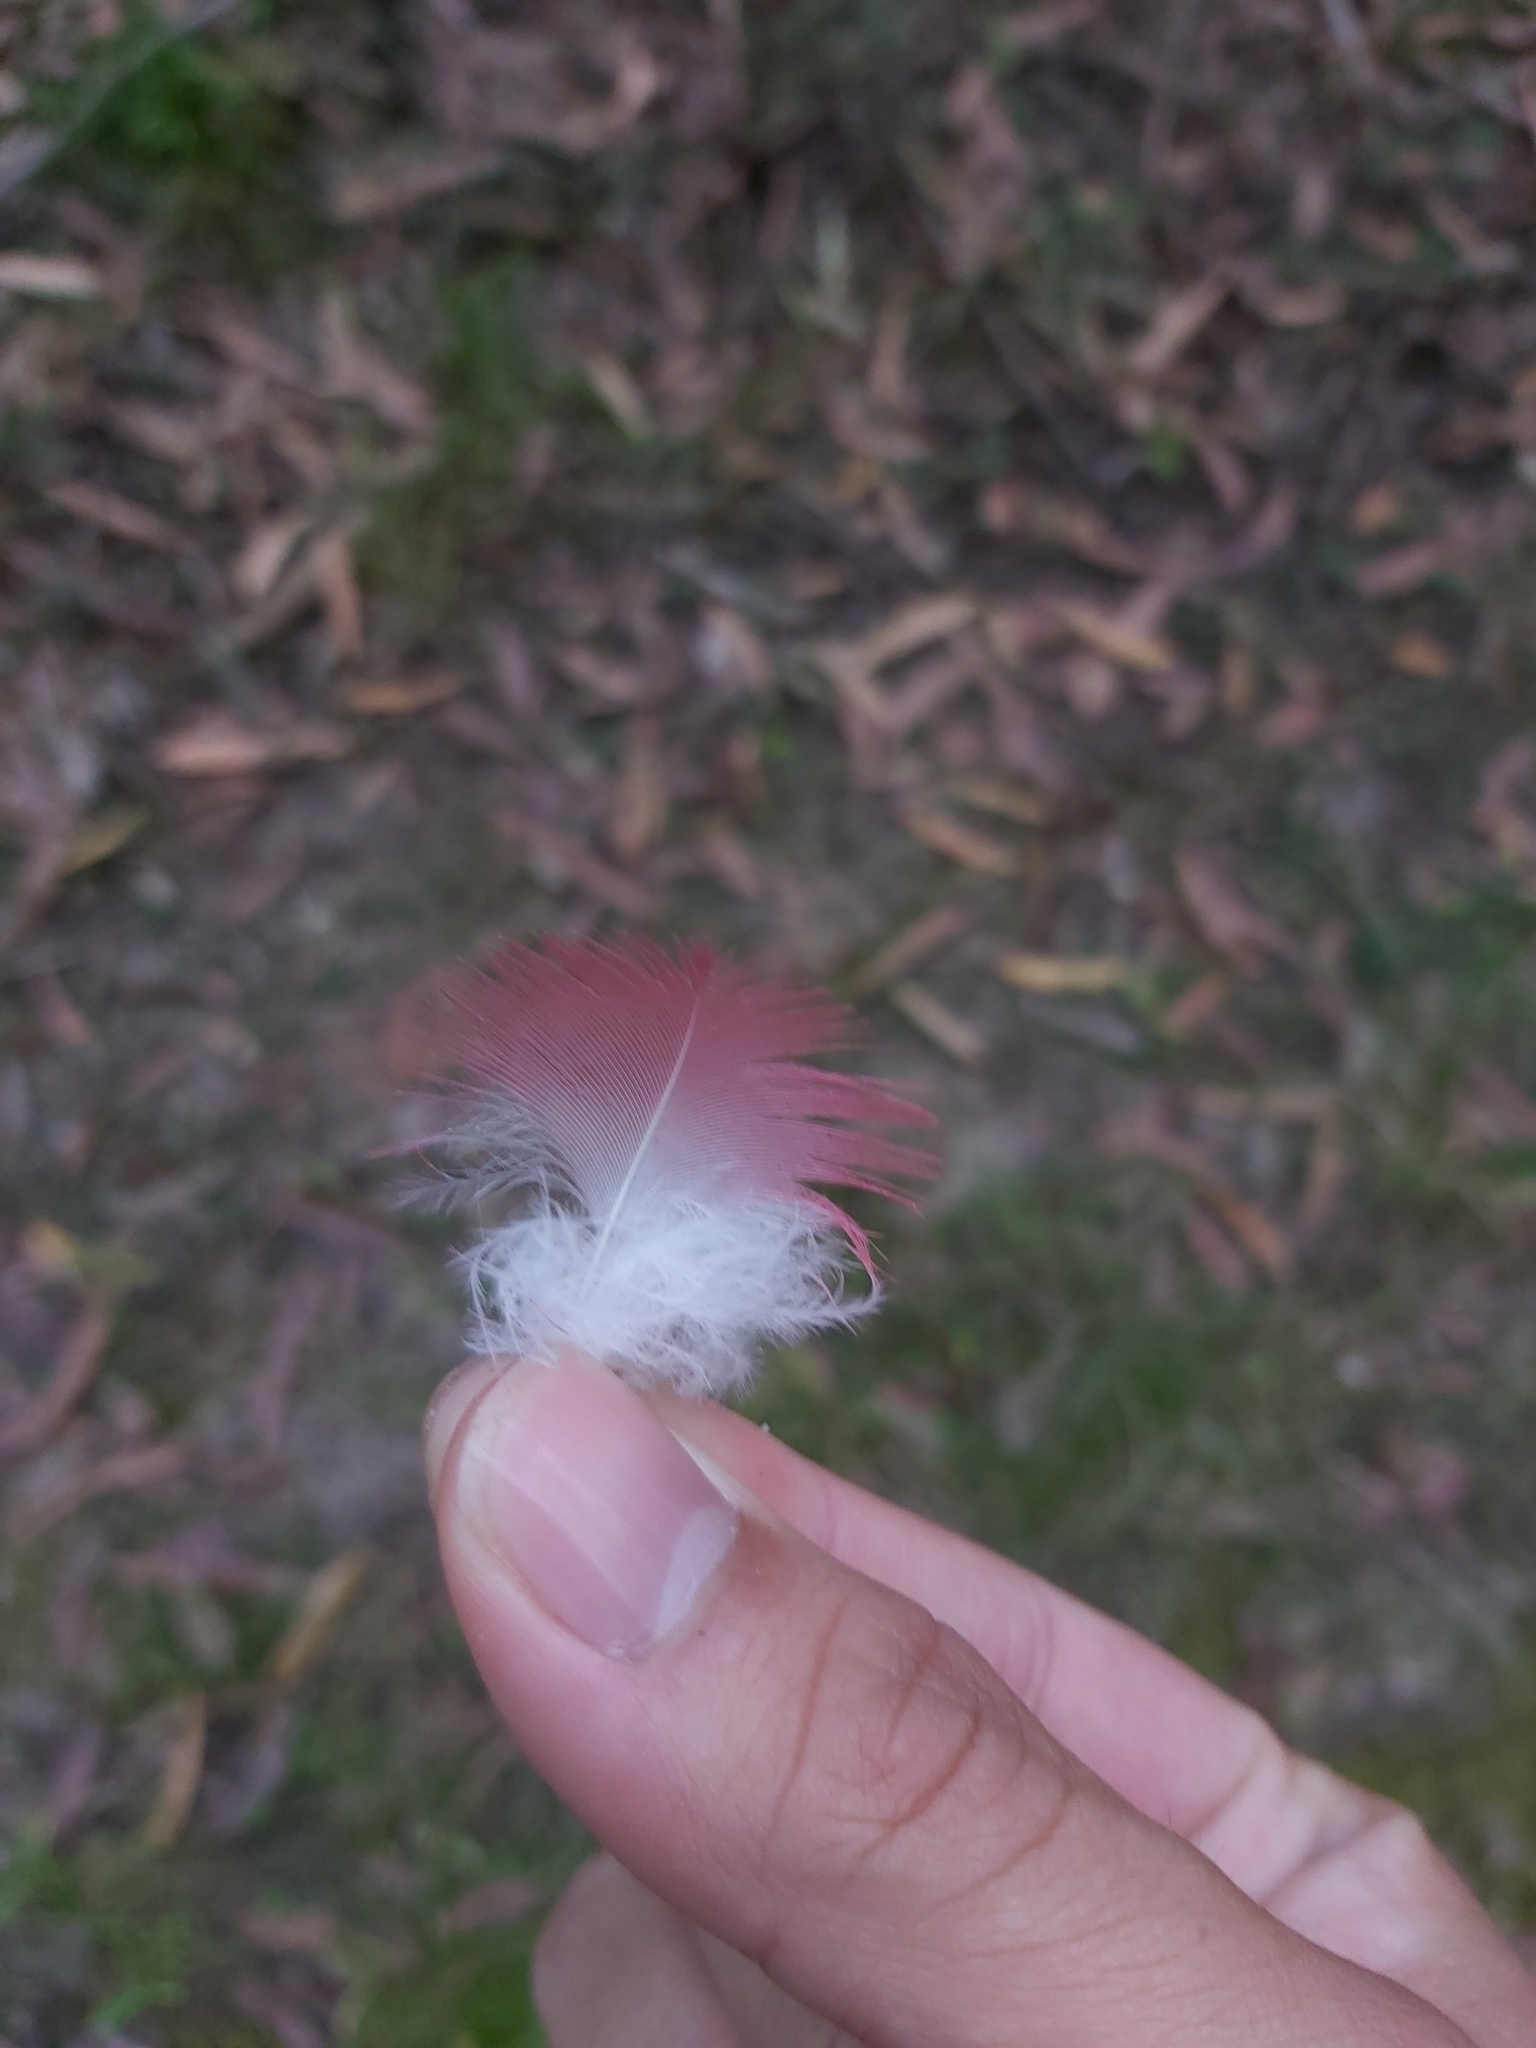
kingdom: Animalia
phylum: Chordata
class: Aves
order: Psittaciformes
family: Psittacidae
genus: Eolophus
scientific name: Eolophus roseicapilla
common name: Galah
